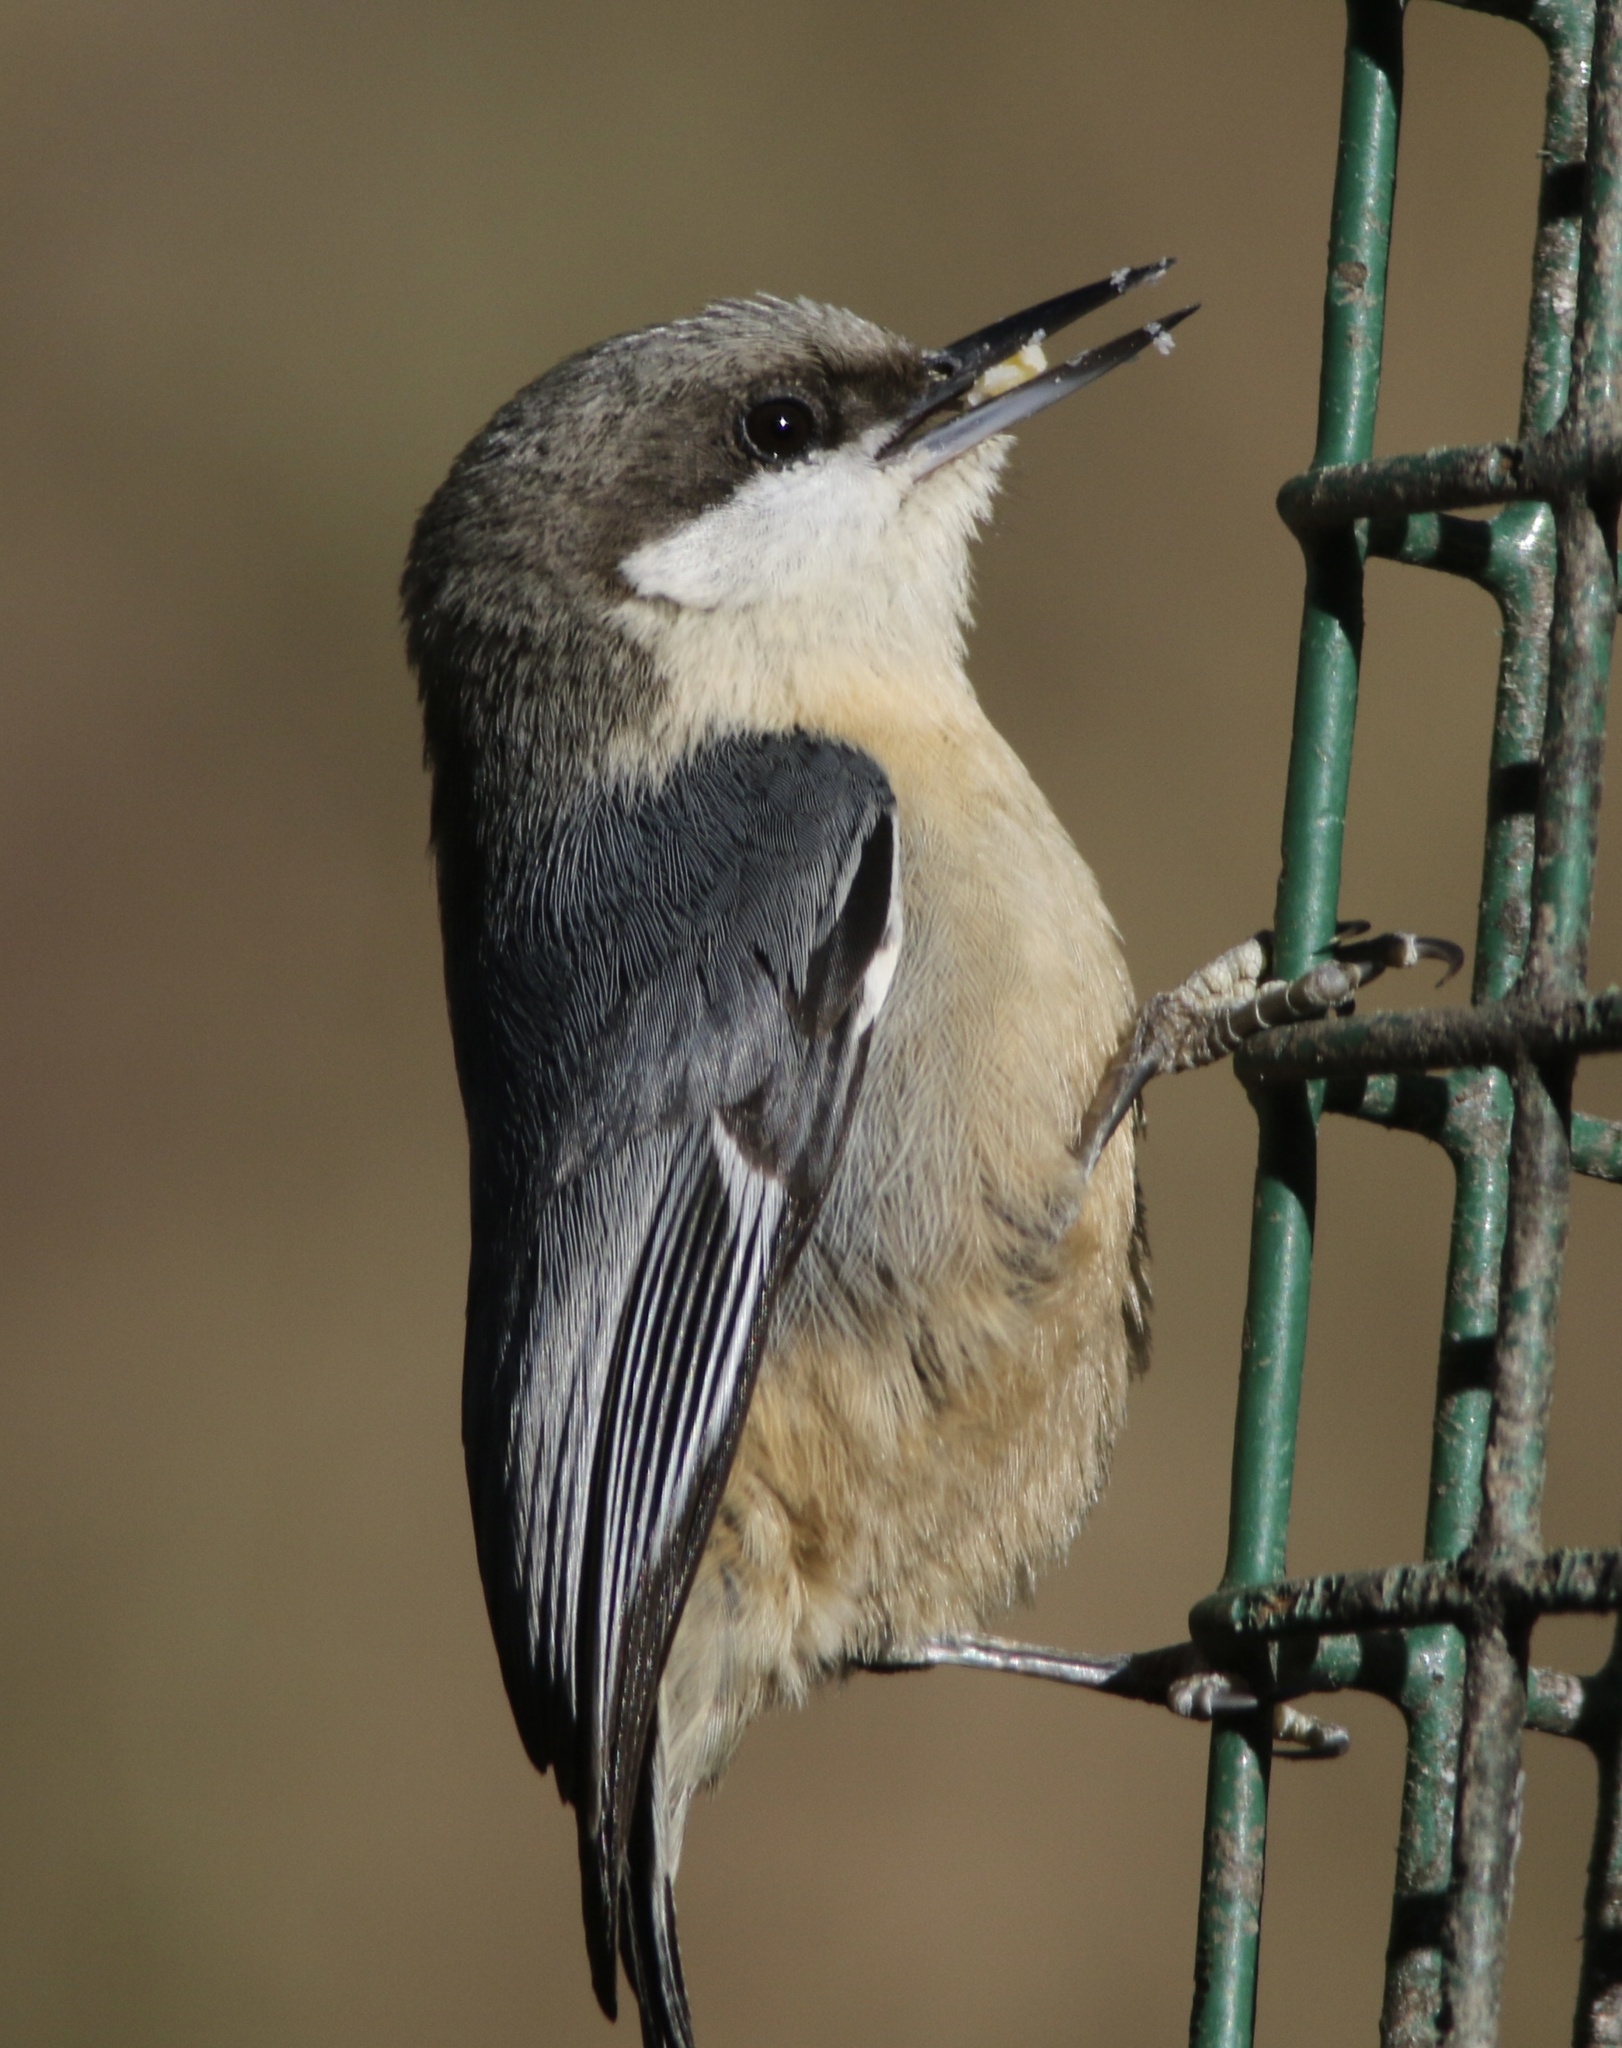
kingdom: Animalia
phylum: Chordata
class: Aves
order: Passeriformes
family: Sittidae
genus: Sitta
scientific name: Sitta pygmaea
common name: Pygmy nuthatch
